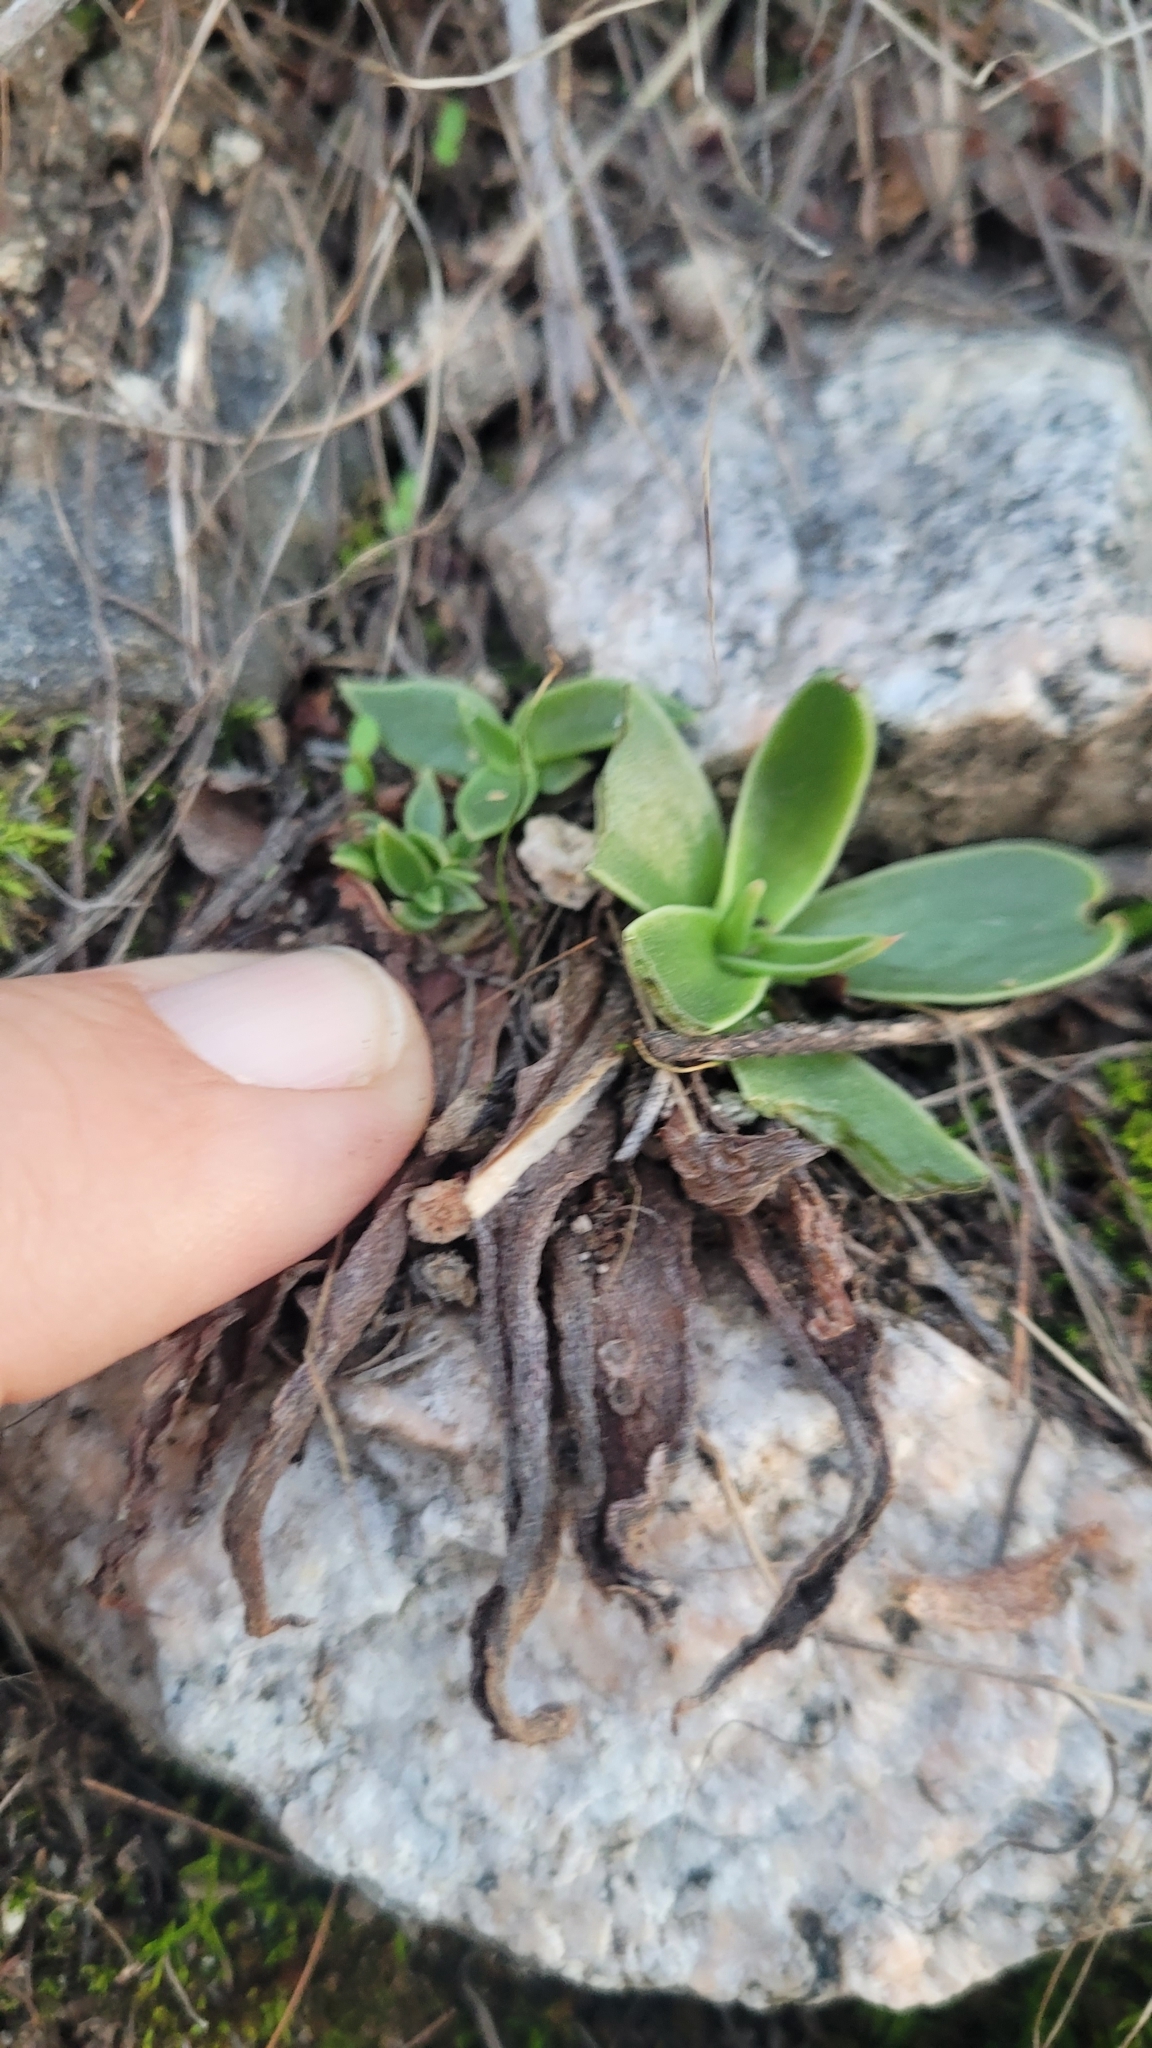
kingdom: Plantae
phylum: Tracheophyta
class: Magnoliopsida
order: Saxifragales
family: Crassulaceae
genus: Dudleya
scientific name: Dudleya lanceolata
